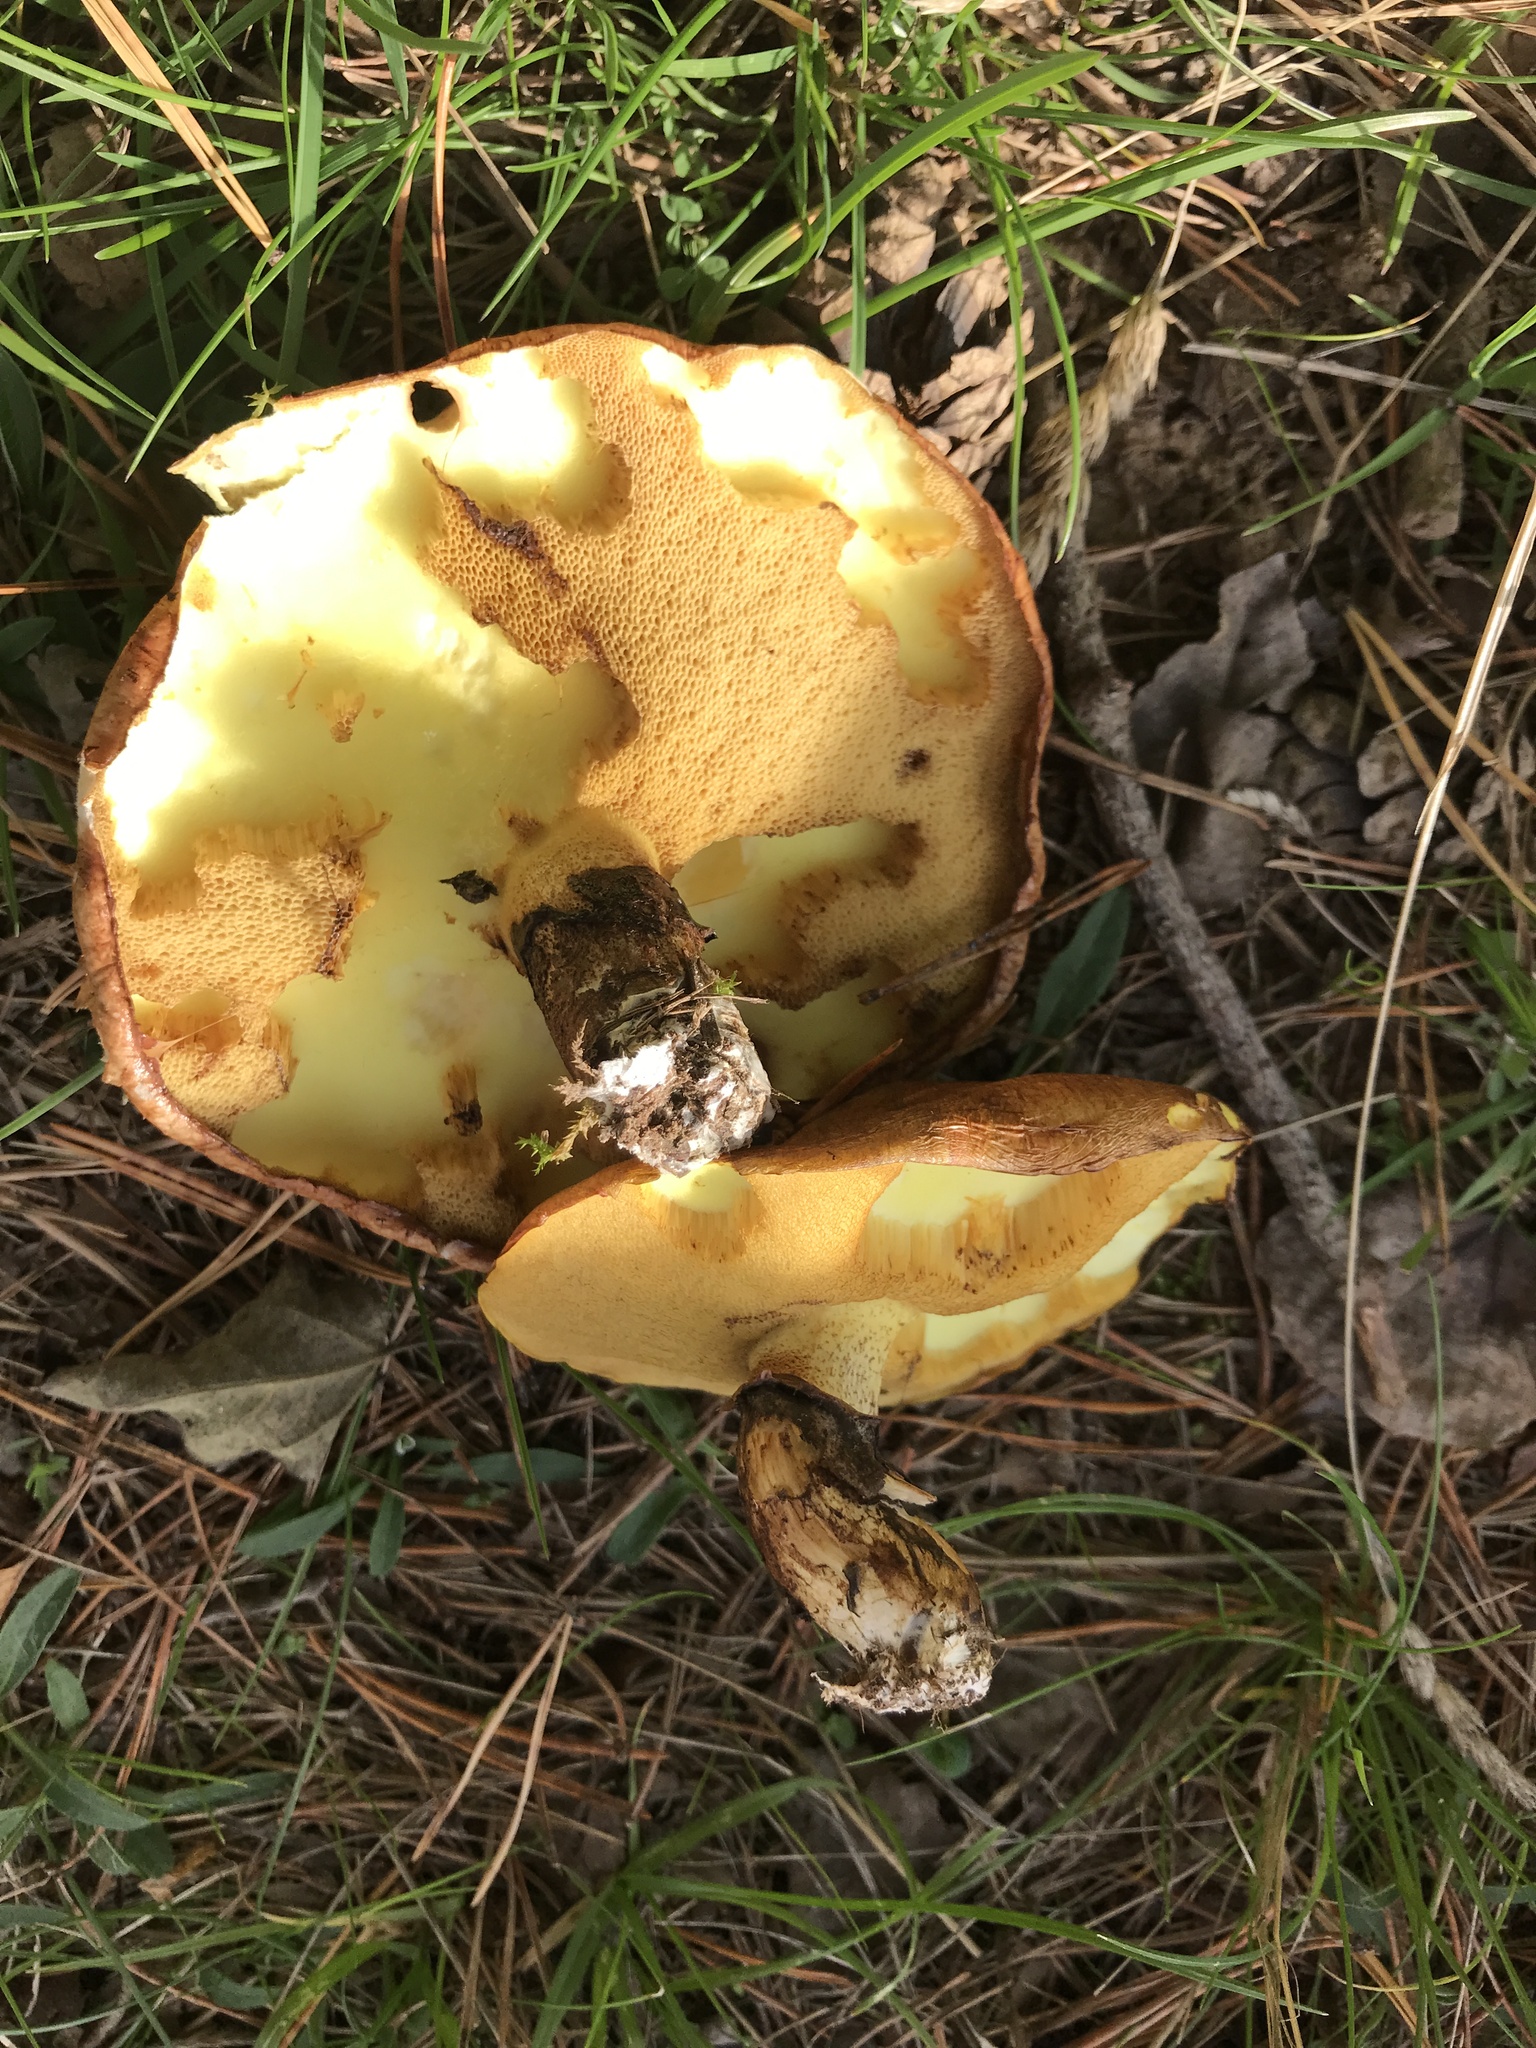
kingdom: Fungi
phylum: Basidiomycota
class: Agaricomycetes
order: Boletales
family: Suillaceae
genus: Suillus
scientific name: Suillus luteus
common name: Slippery jack
